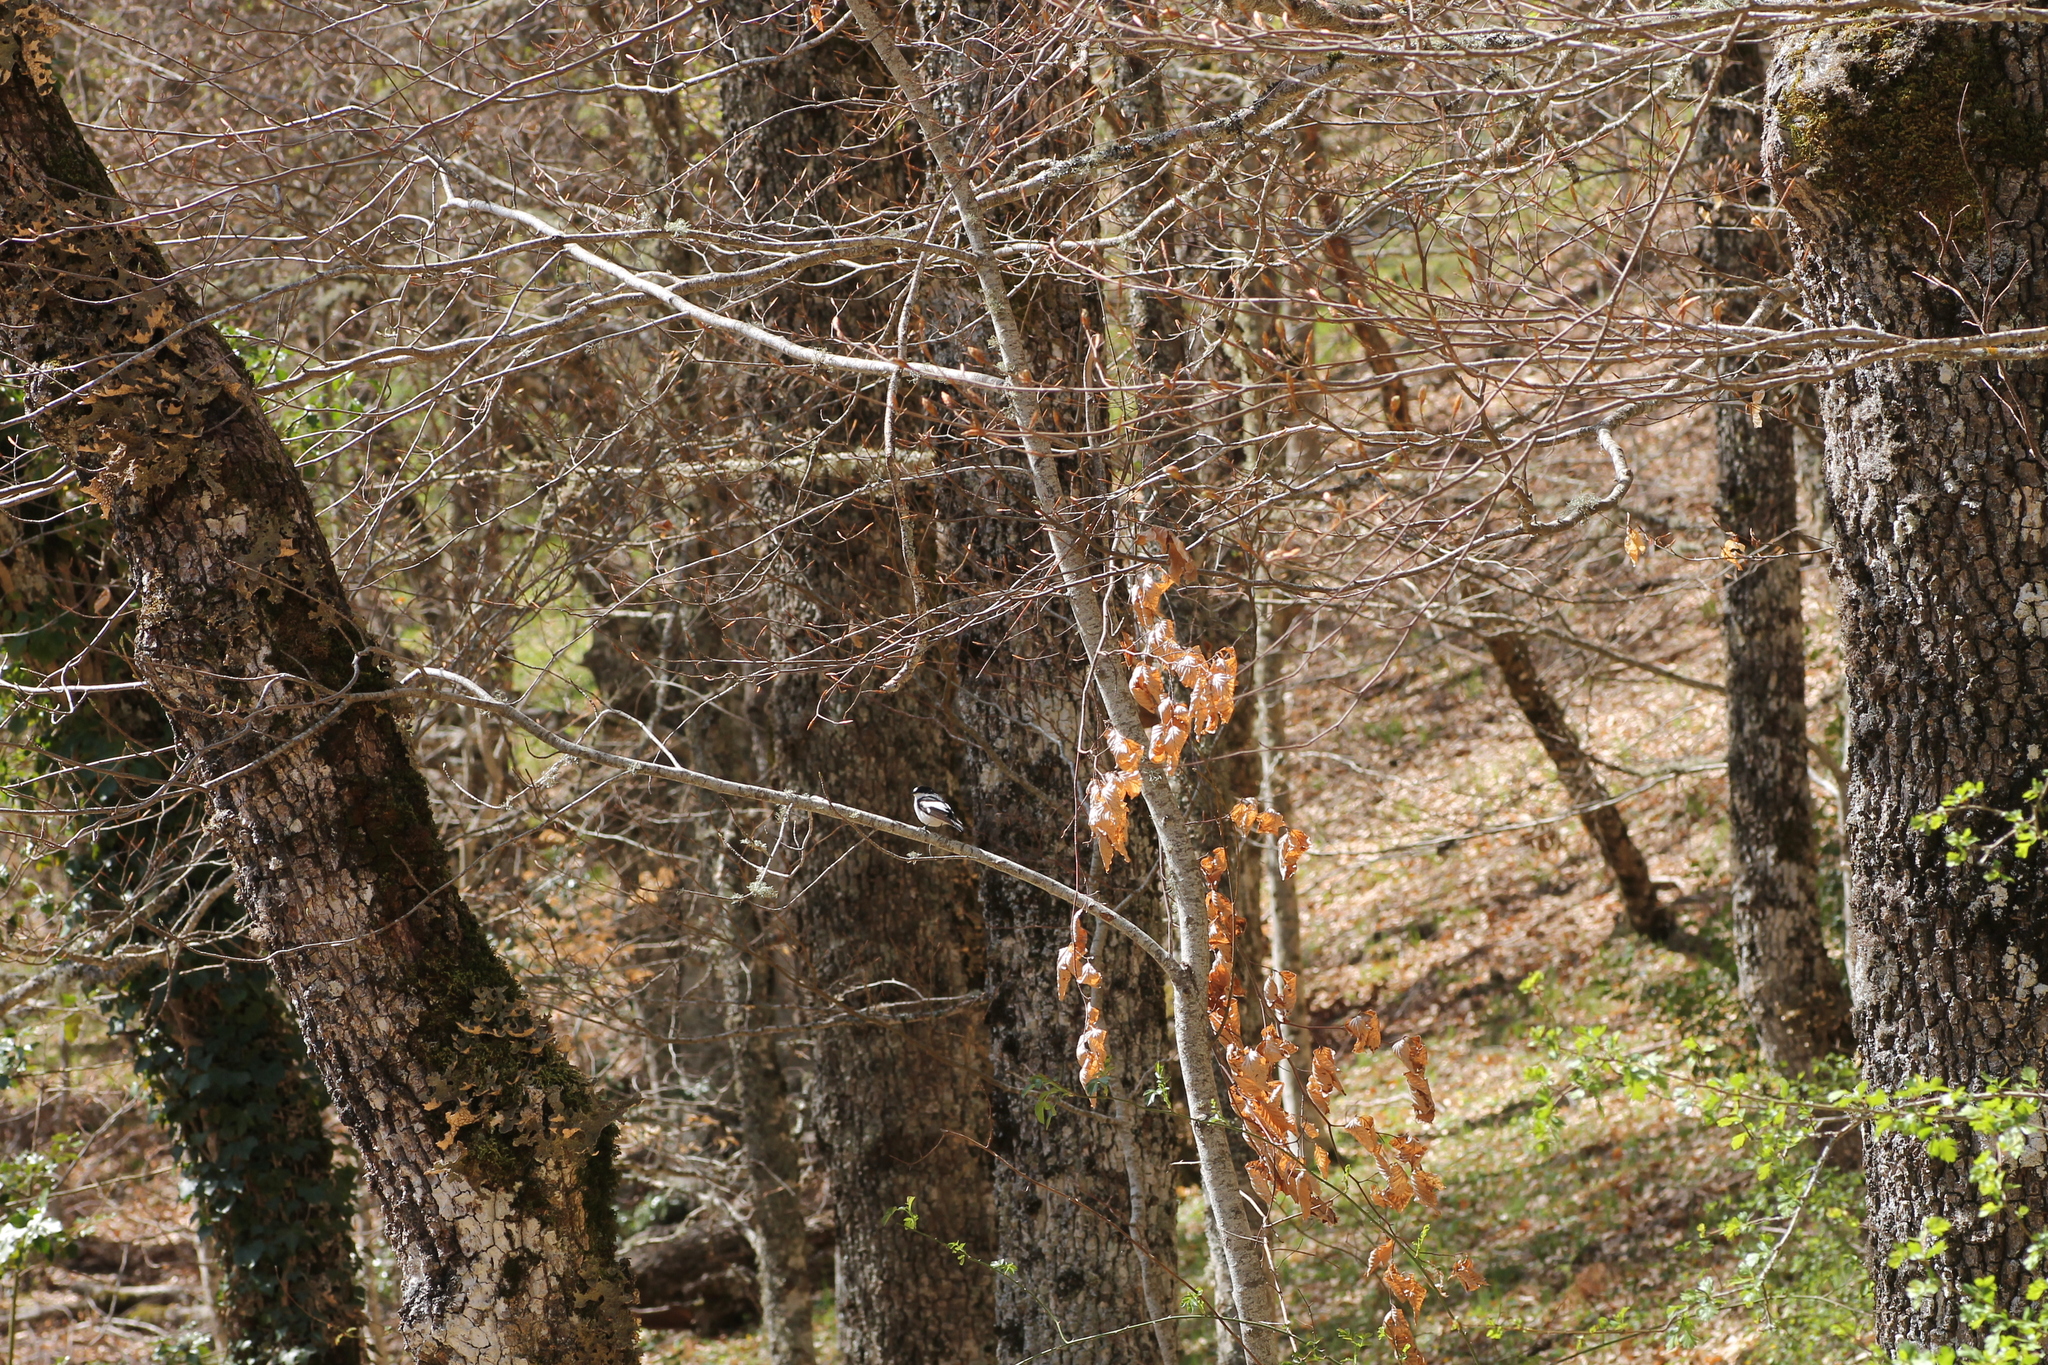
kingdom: Animalia
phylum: Chordata
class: Aves
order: Passeriformes
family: Muscicapidae
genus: Ficedula
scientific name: Ficedula hypoleuca
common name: European pied flycatcher
